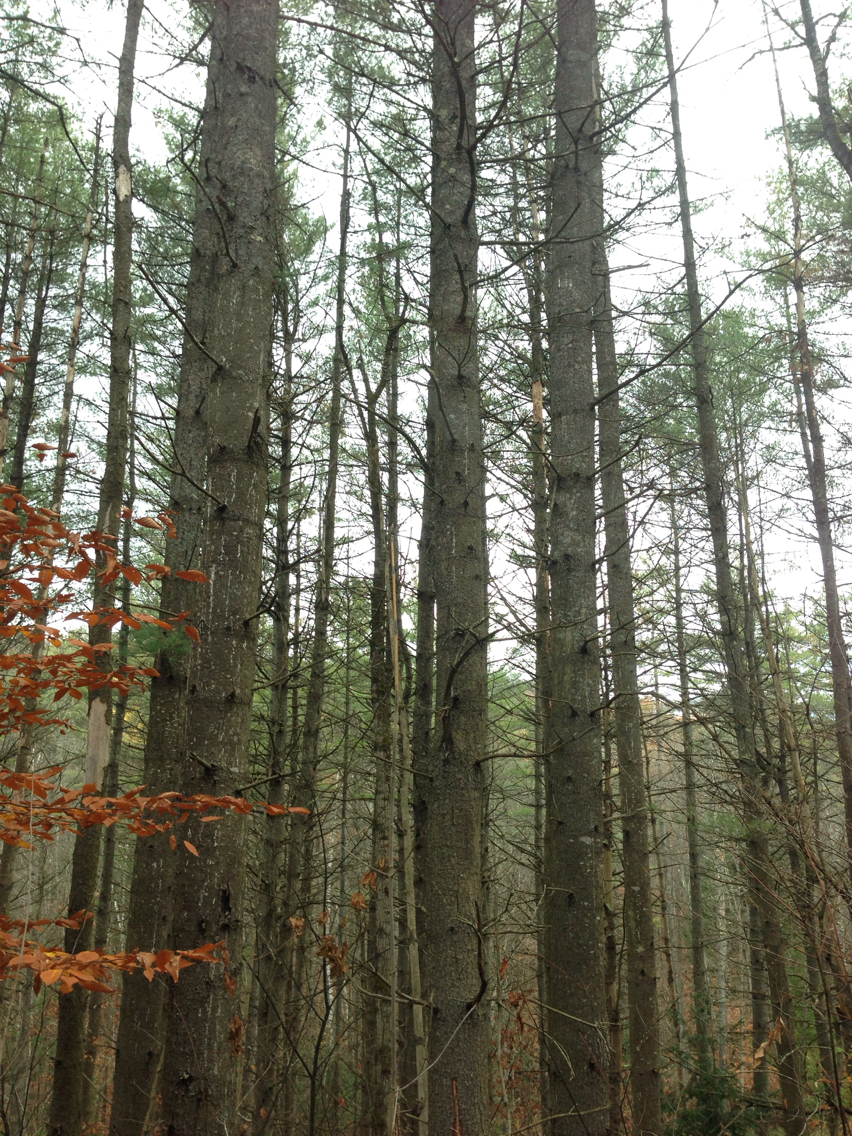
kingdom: Plantae
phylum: Tracheophyta
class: Pinopsida
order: Pinales
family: Pinaceae
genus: Pinus
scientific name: Pinus strobus
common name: Weymouth pine
